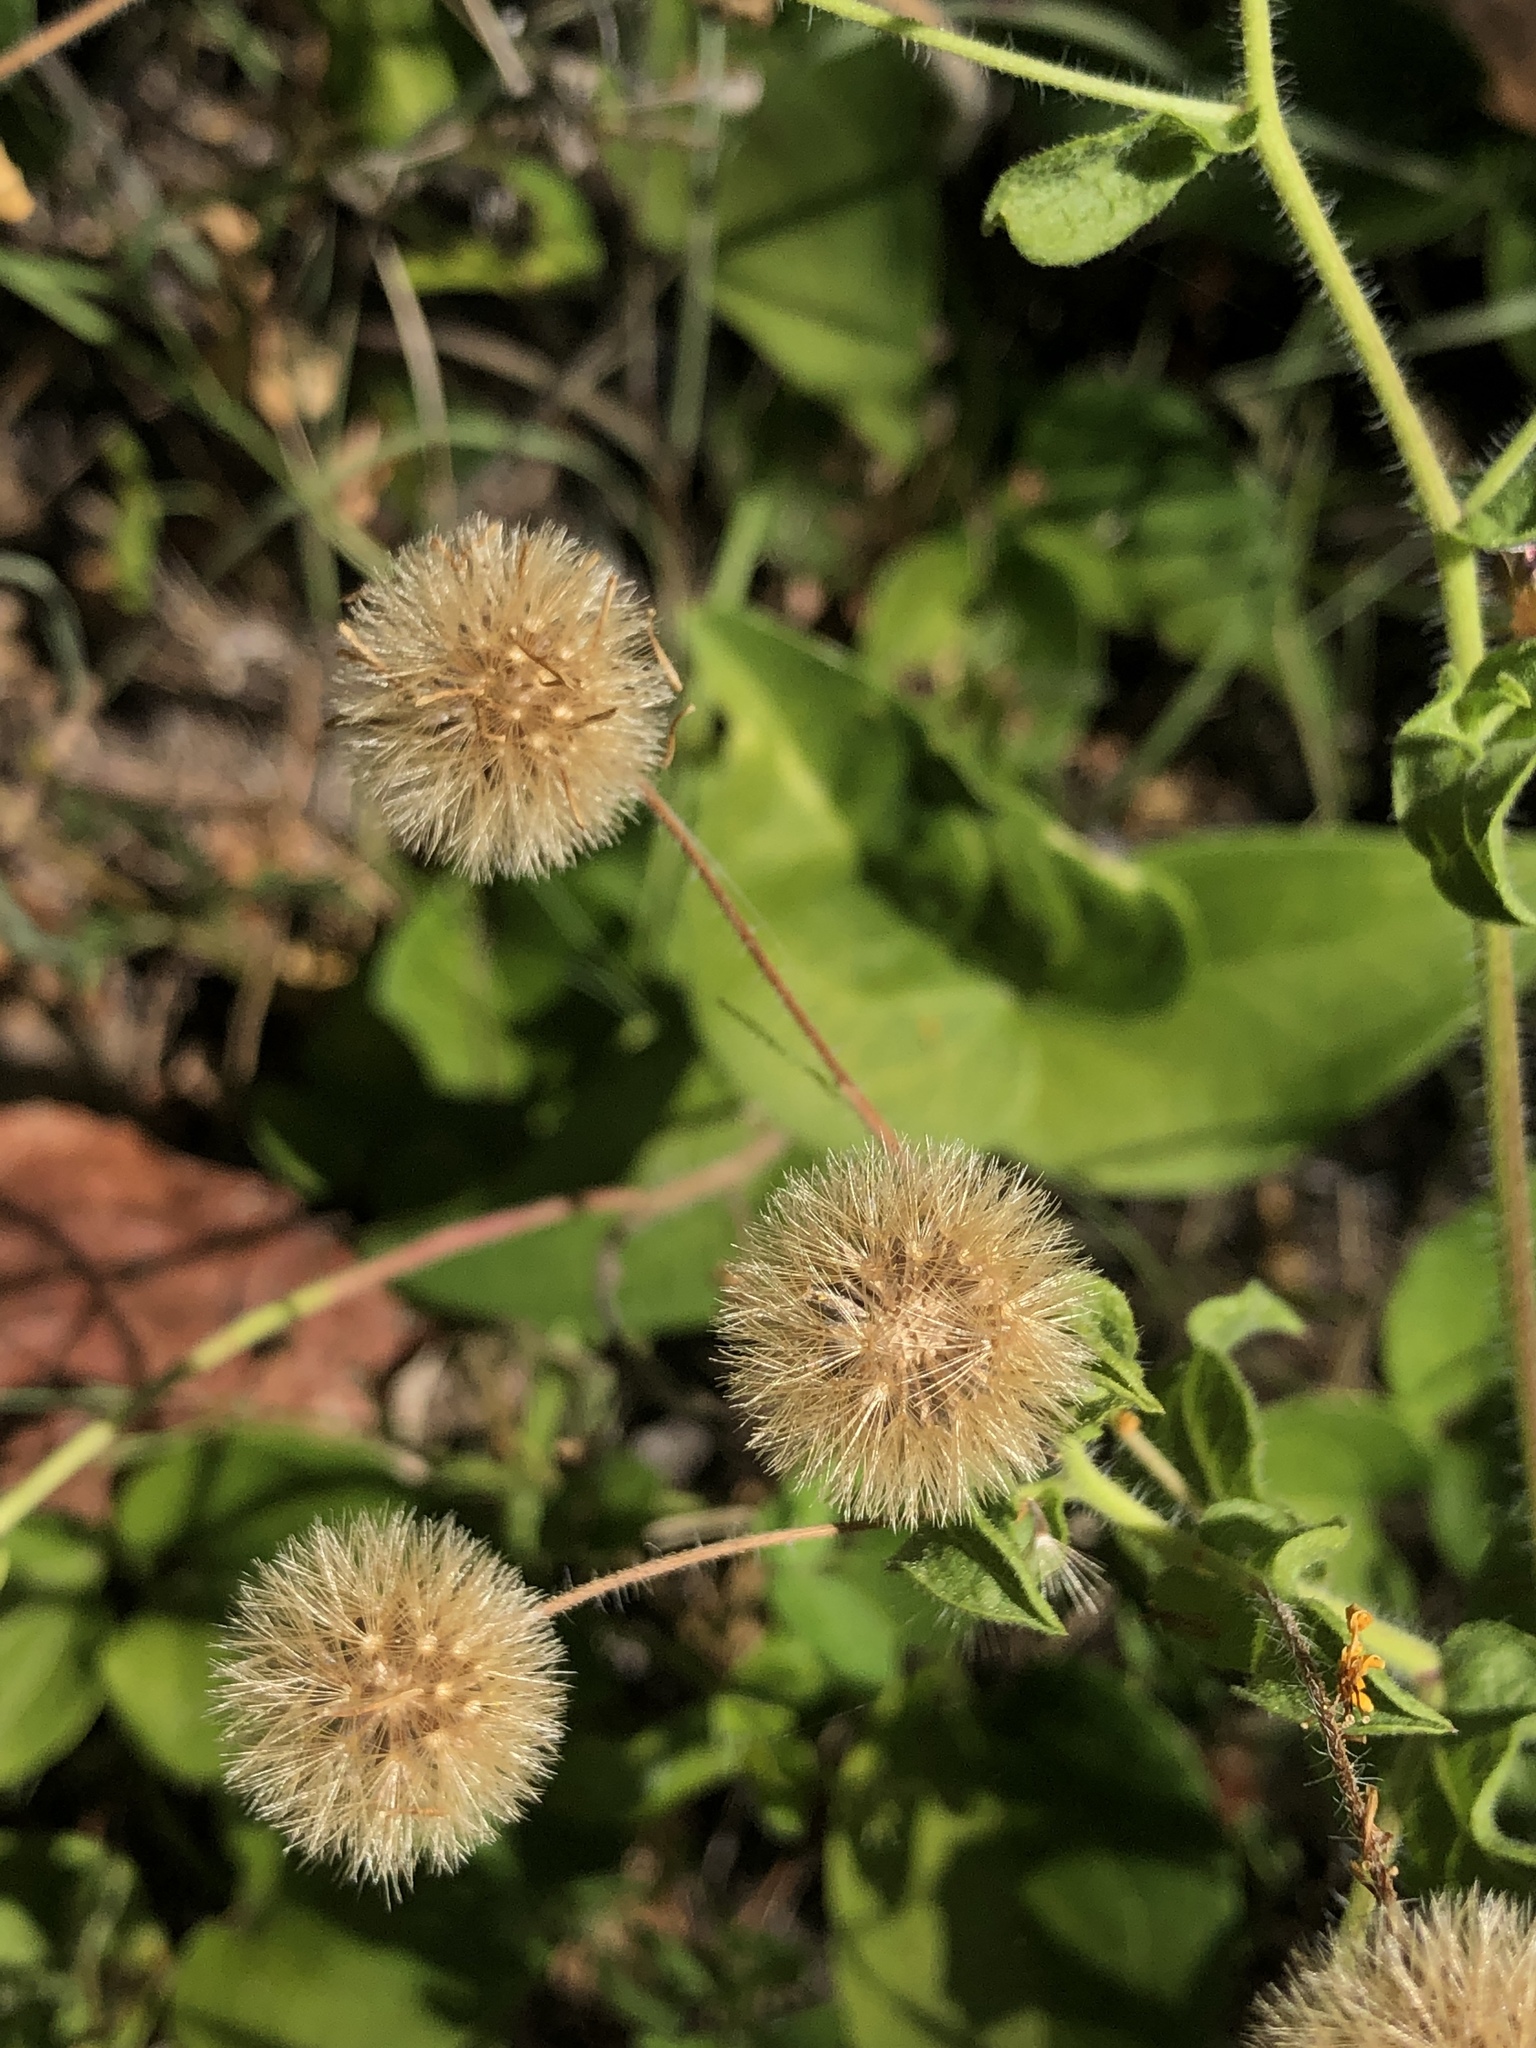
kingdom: Plantae
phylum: Tracheophyta
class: Magnoliopsida
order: Asterales
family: Asteraceae
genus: Heterotheca
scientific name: Heterotheca subaxillaris
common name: Camphorweed
